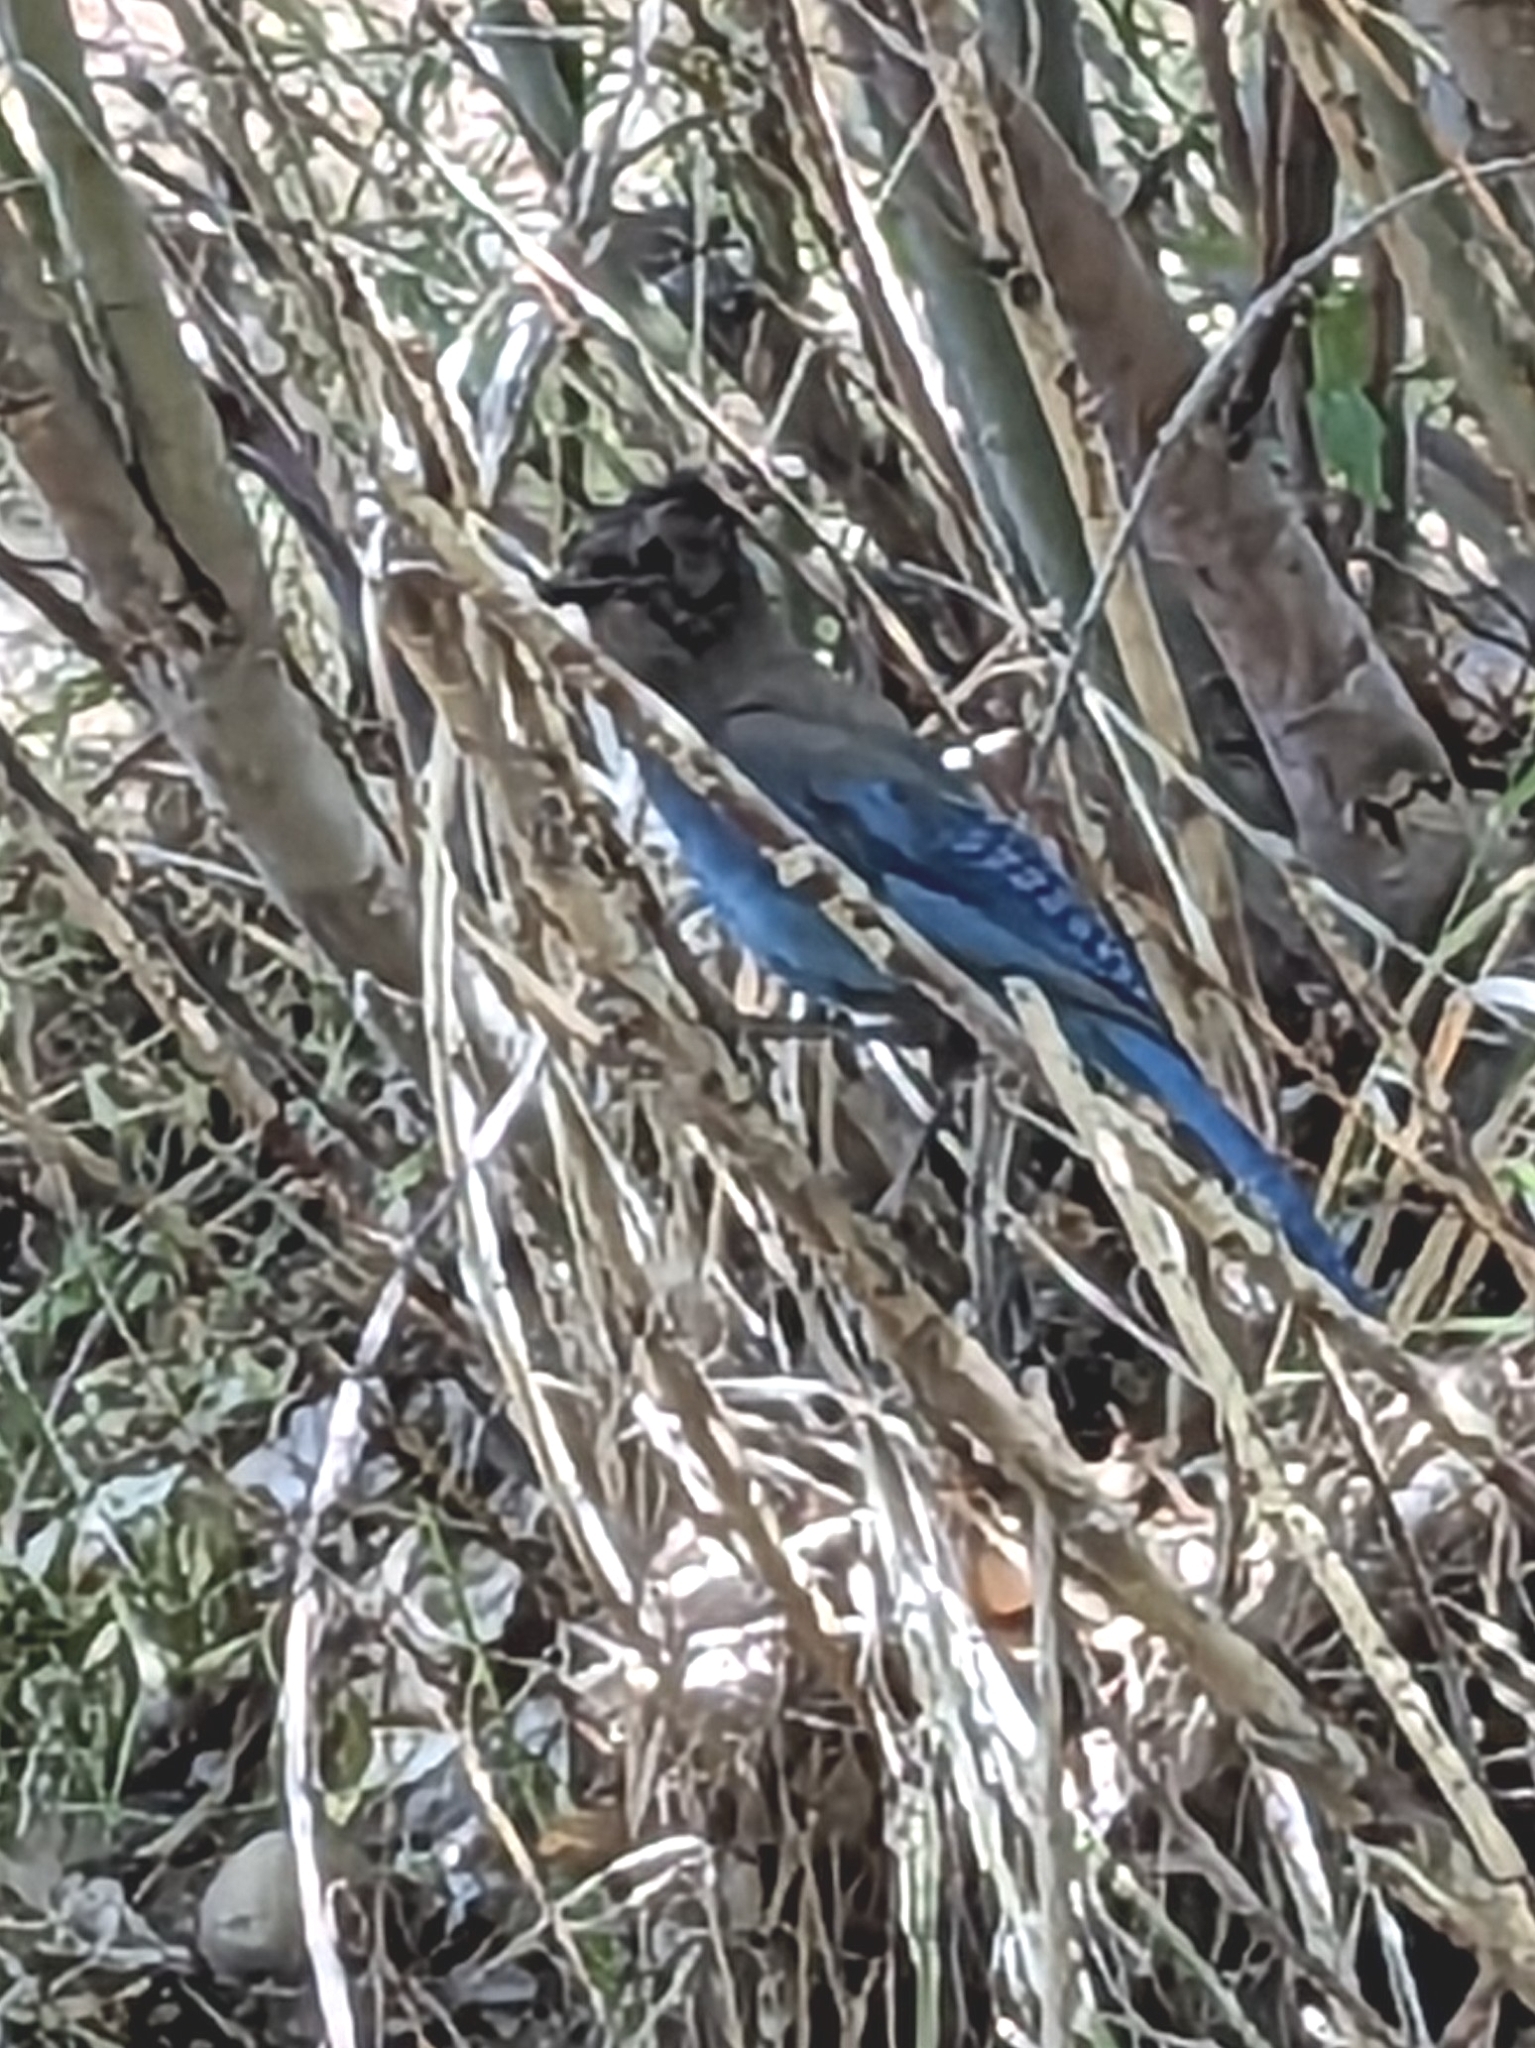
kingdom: Animalia
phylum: Chordata
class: Aves
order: Passeriformes
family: Corvidae
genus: Cyanocitta
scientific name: Cyanocitta stelleri
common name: Steller's jay
